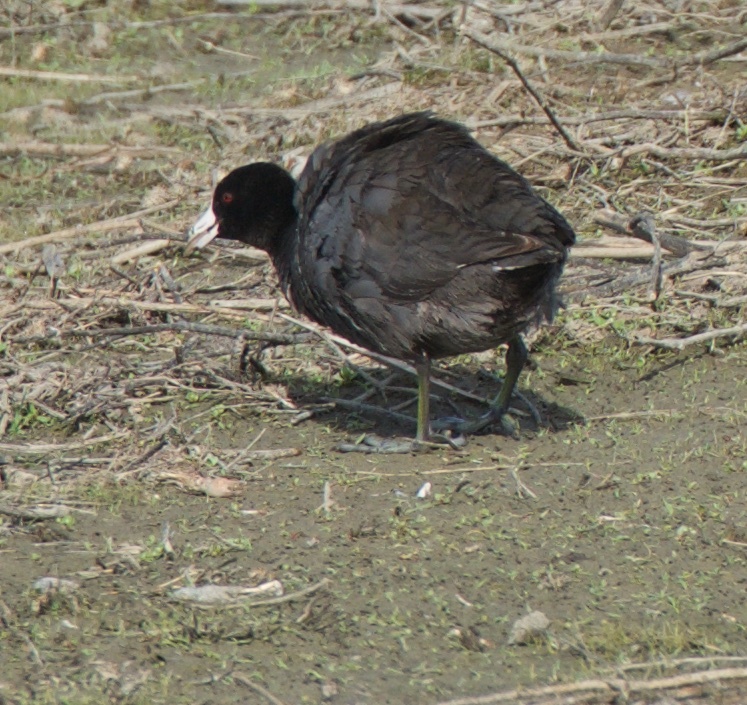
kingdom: Animalia
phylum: Chordata
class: Aves
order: Gruiformes
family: Rallidae
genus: Fulica
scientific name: Fulica americana
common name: American coot
